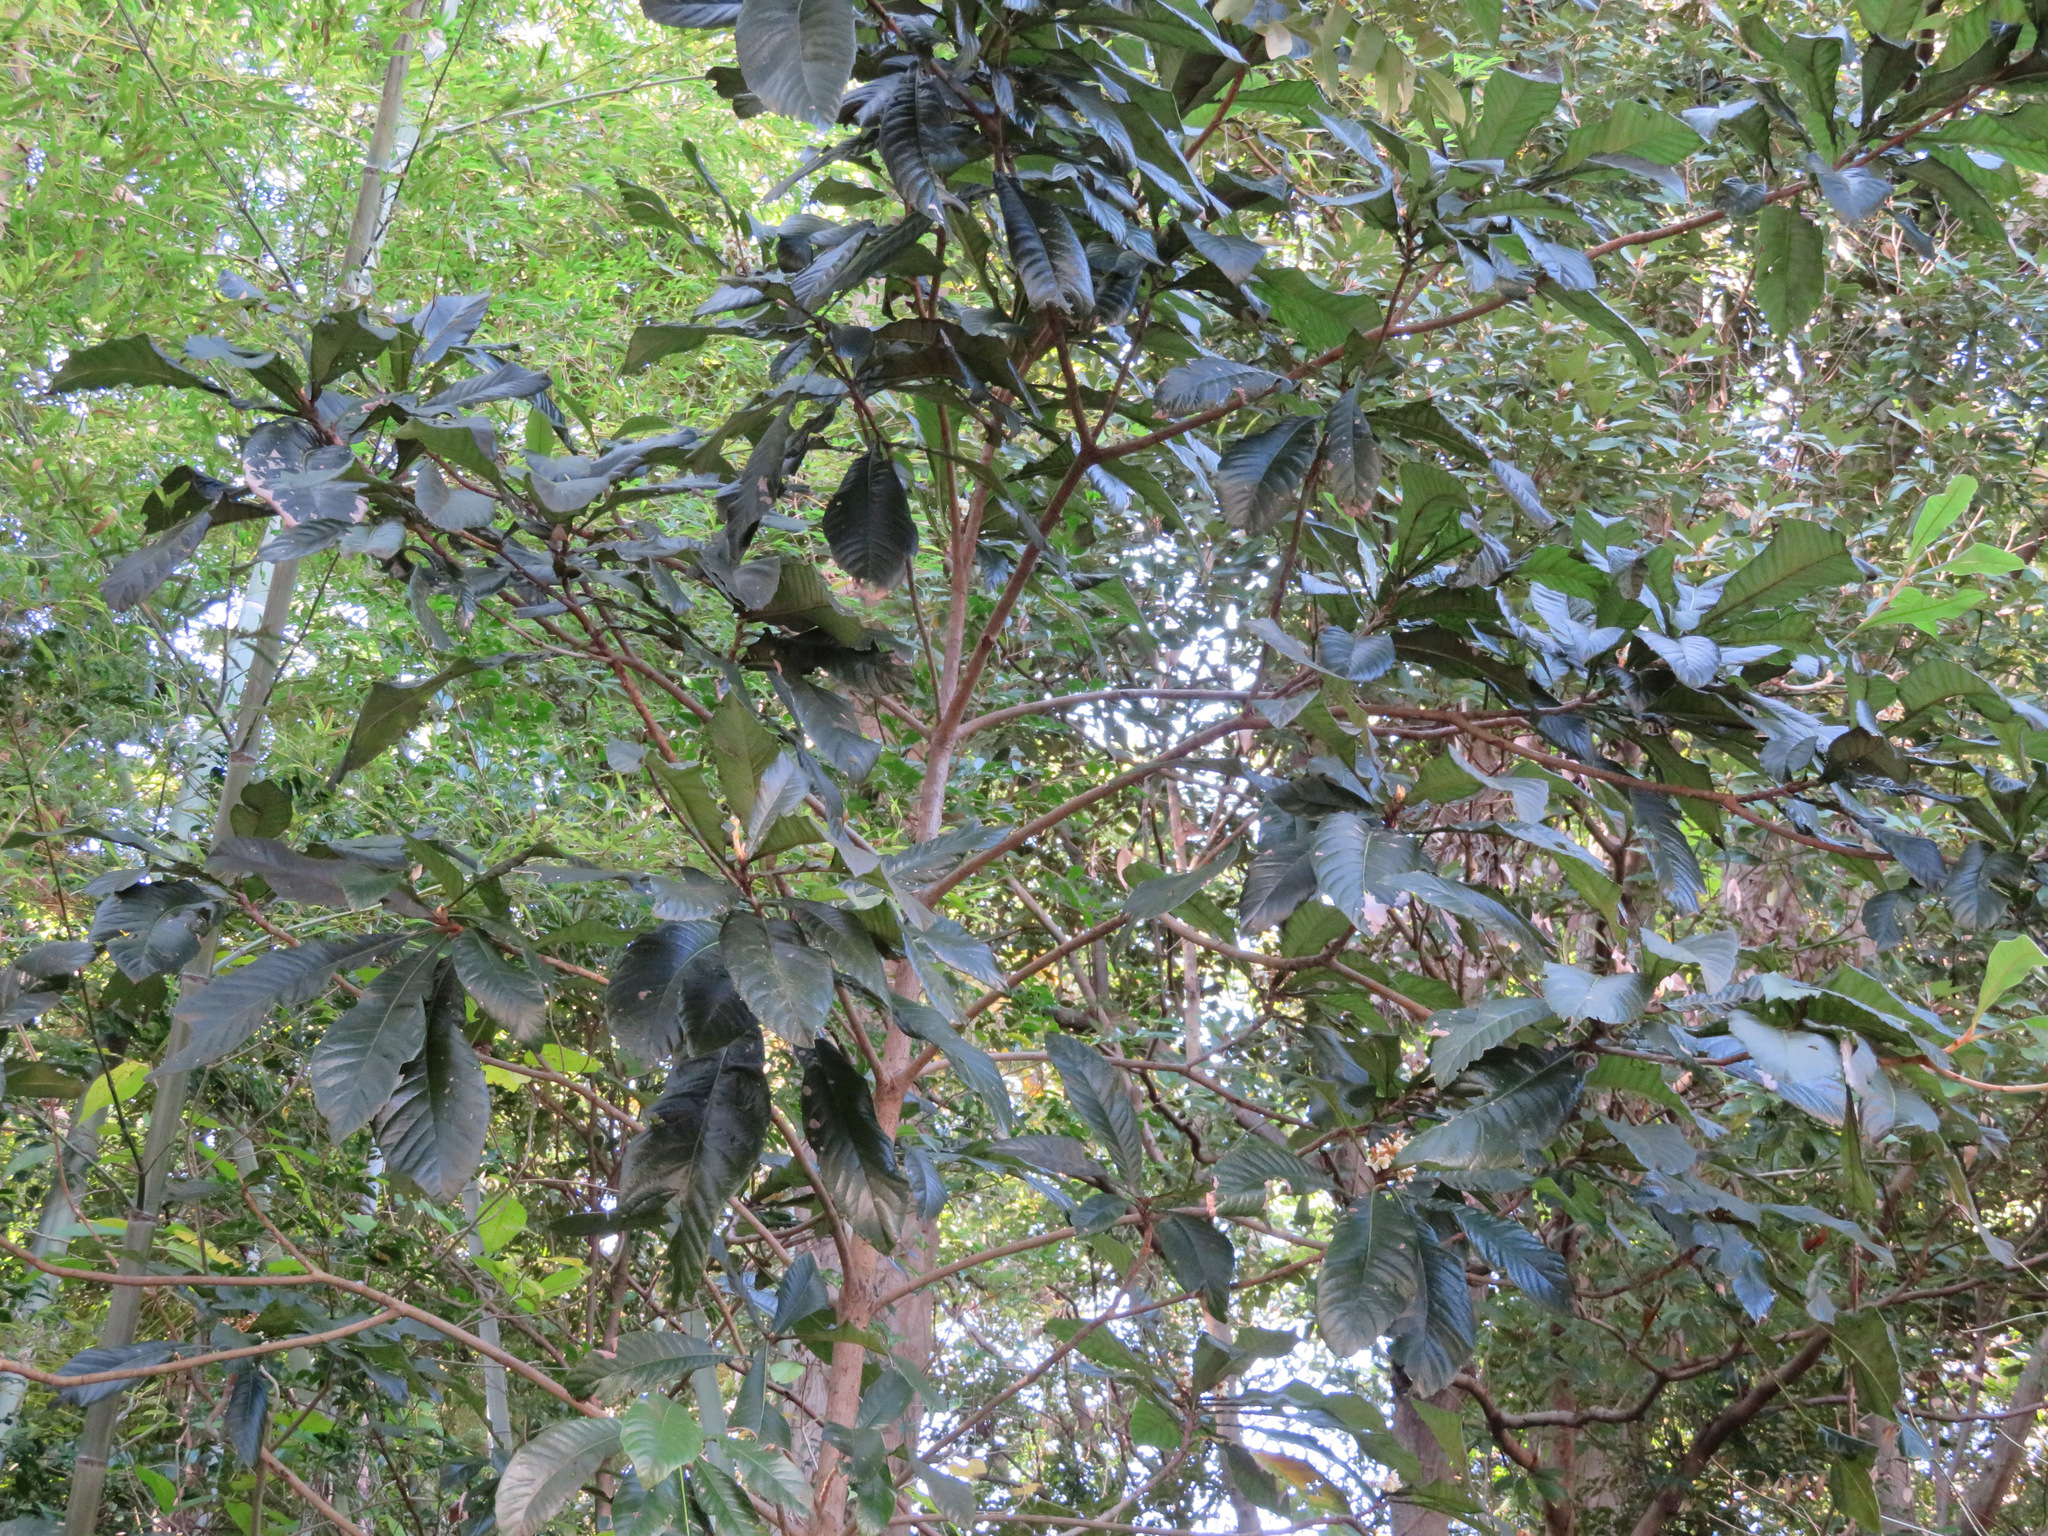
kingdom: Plantae
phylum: Tracheophyta
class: Magnoliopsida
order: Rosales
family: Rosaceae
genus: Rhaphiolepis
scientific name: Rhaphiolepis bibas
